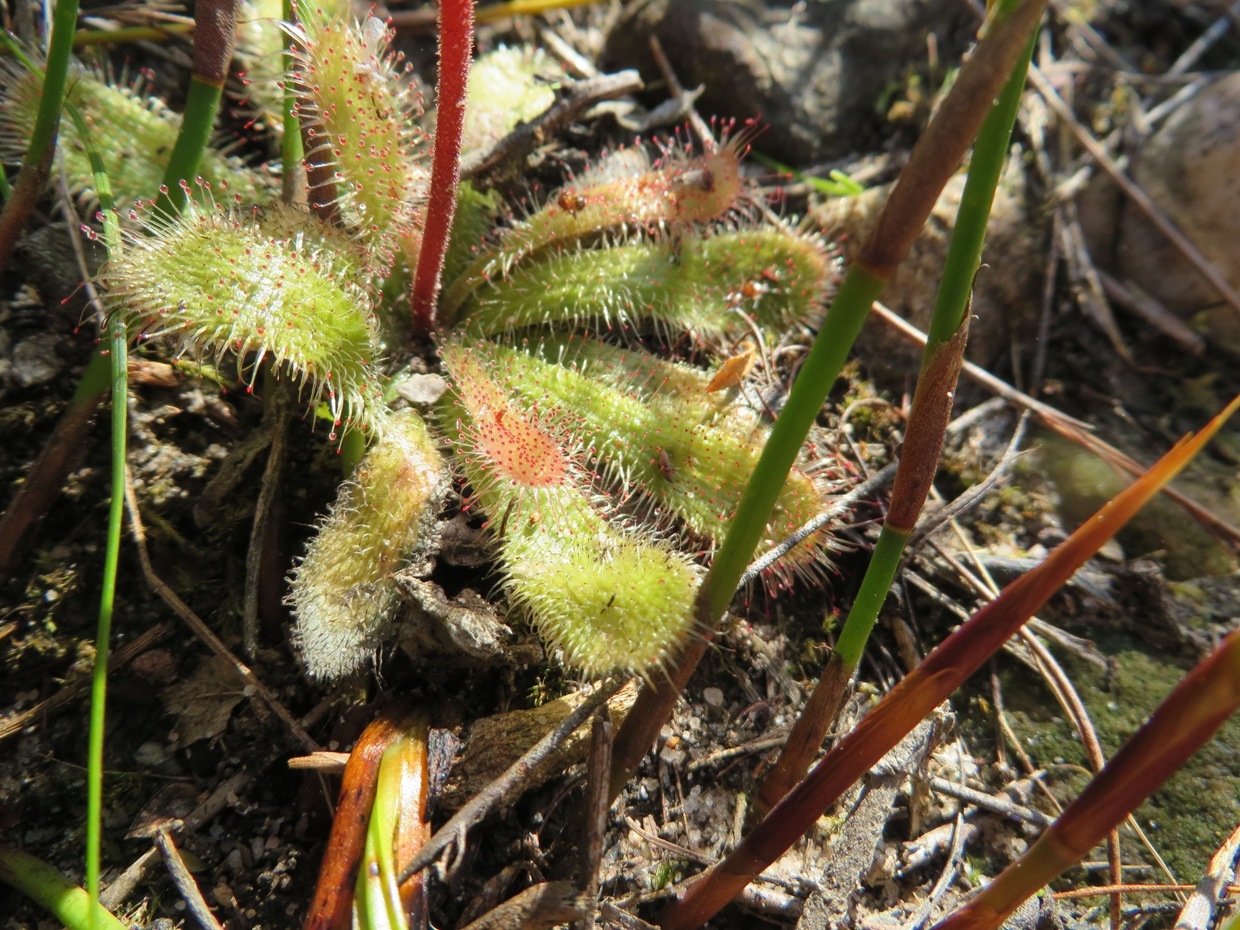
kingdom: Plantae
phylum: Tracheophyta
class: Magnoliopsida
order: Caryophyllales
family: Droseraceae
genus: Drosera
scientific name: Drosera pauciflora
